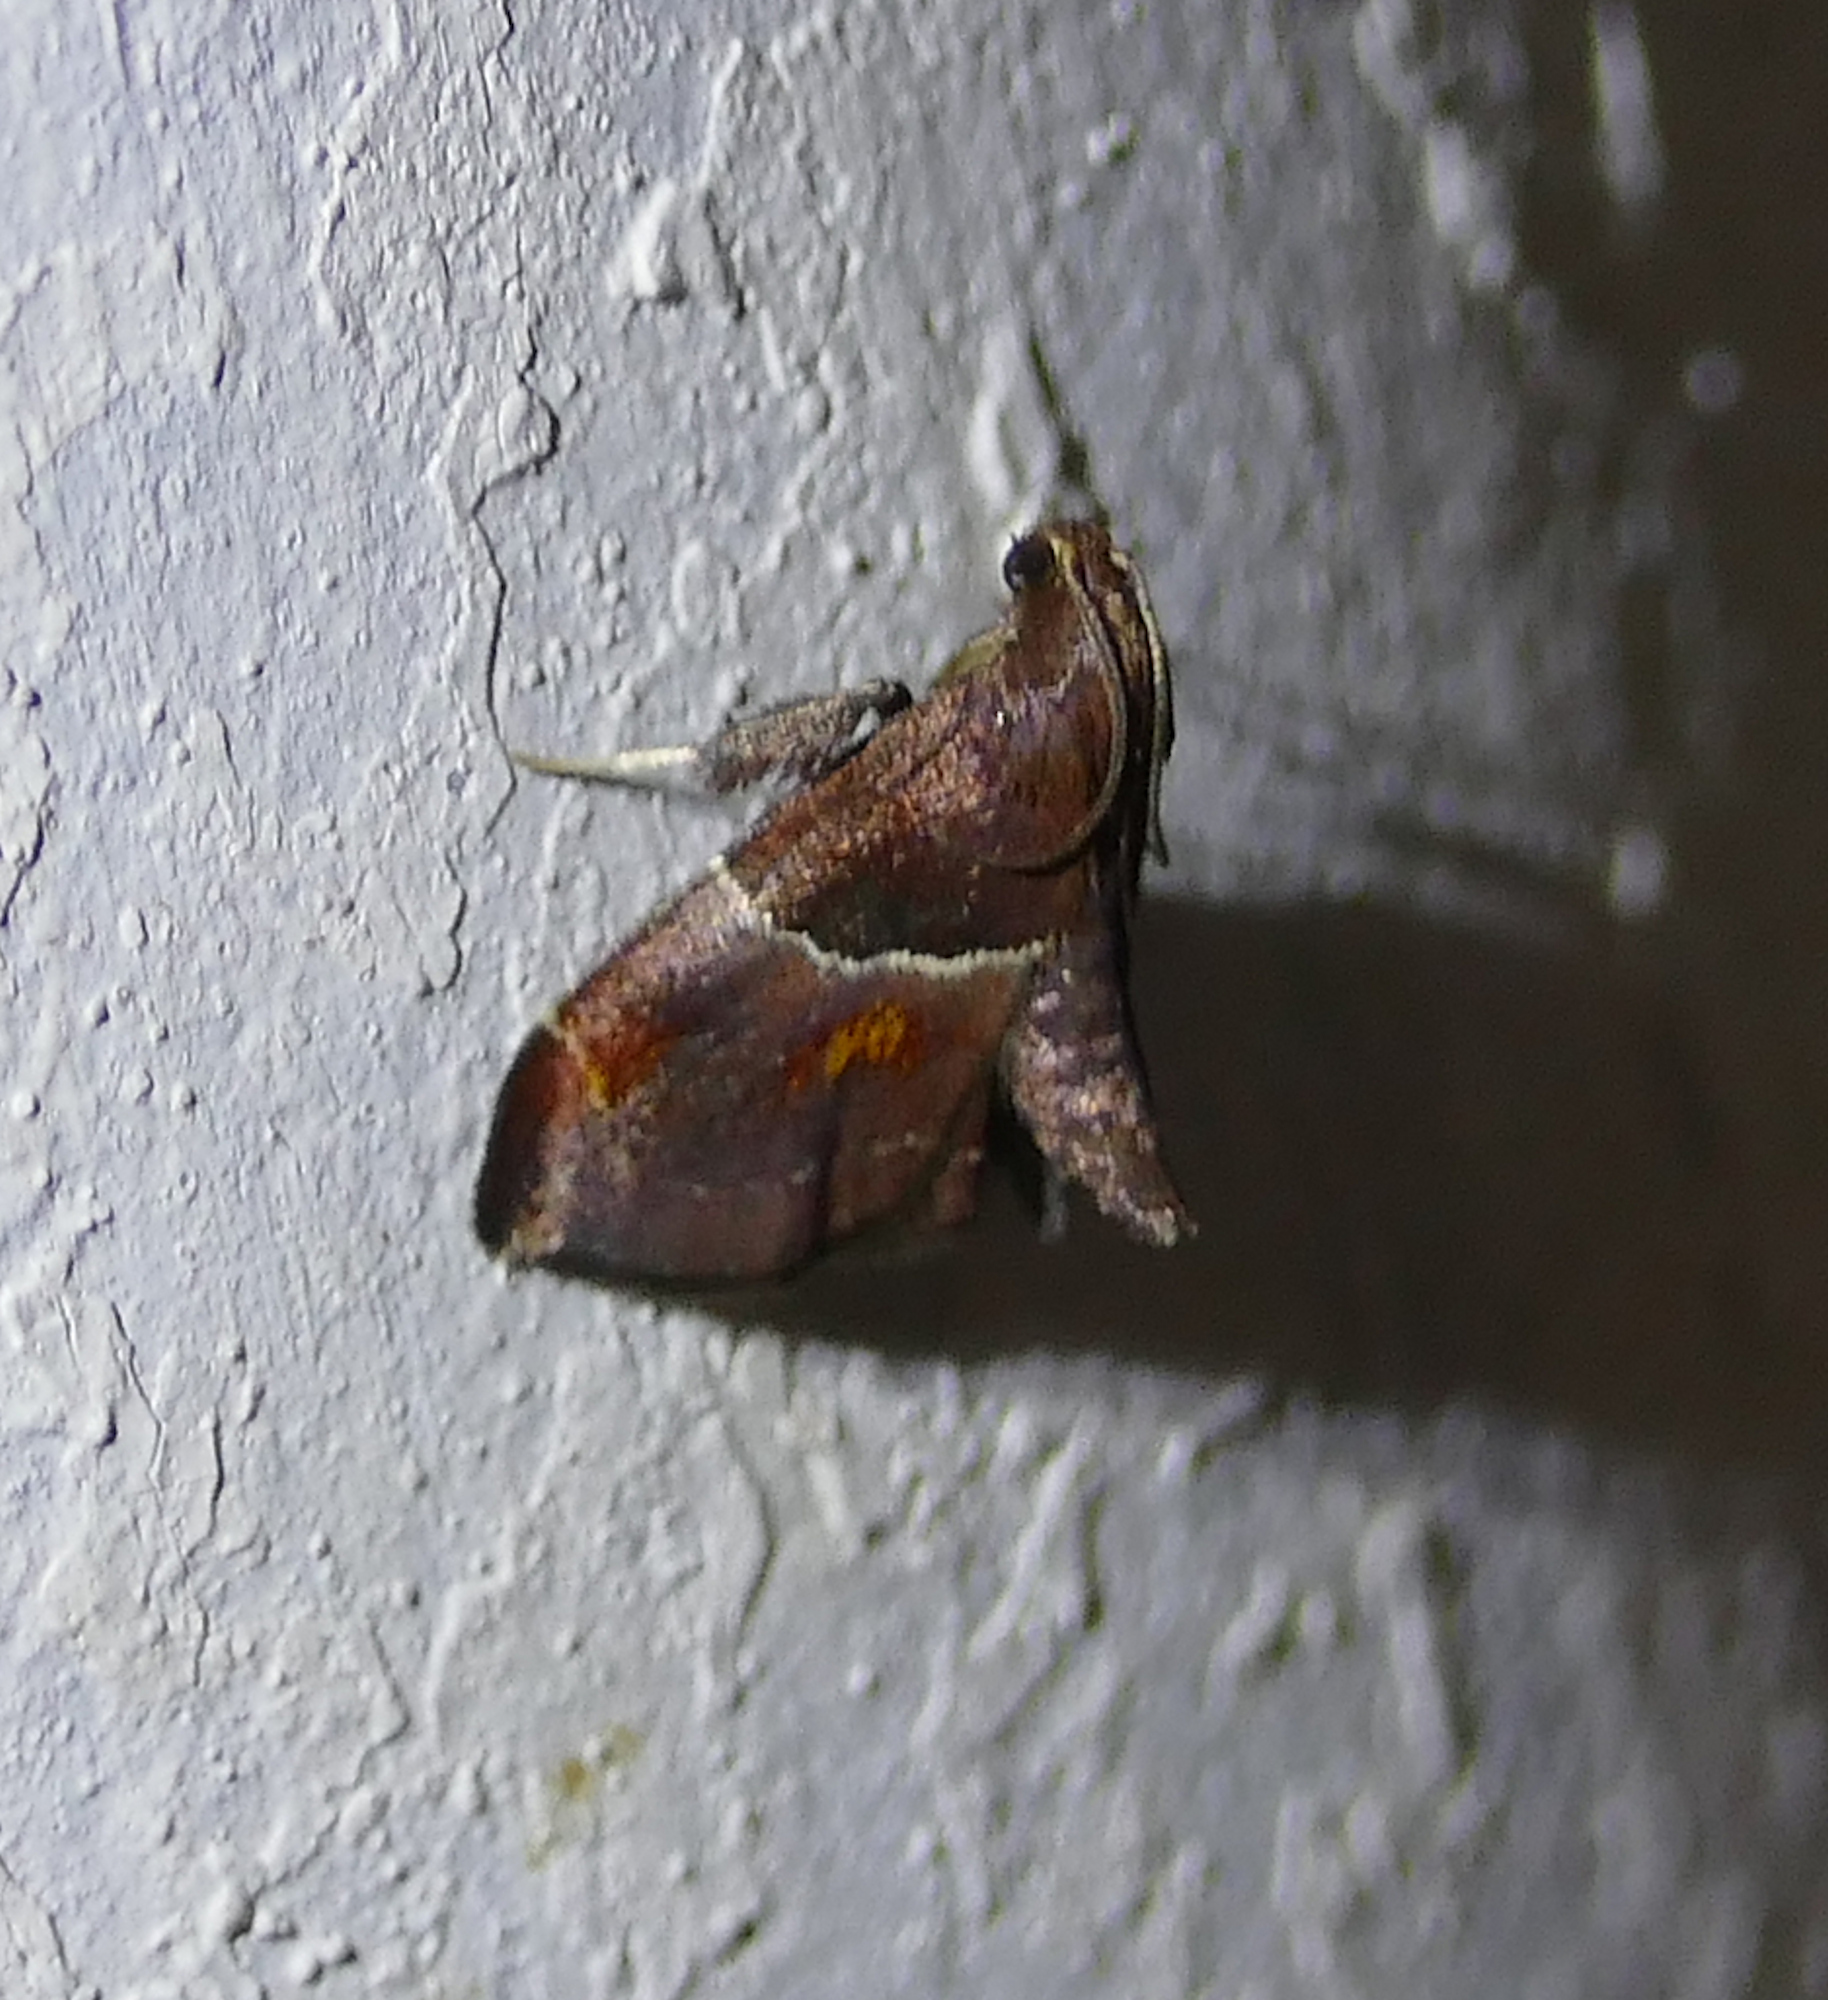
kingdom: Animalia
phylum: Arthropoda
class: Insecta
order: Lepidoptera
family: Pyralidae
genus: Penthesilea
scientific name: Penthesilea sacculalis
